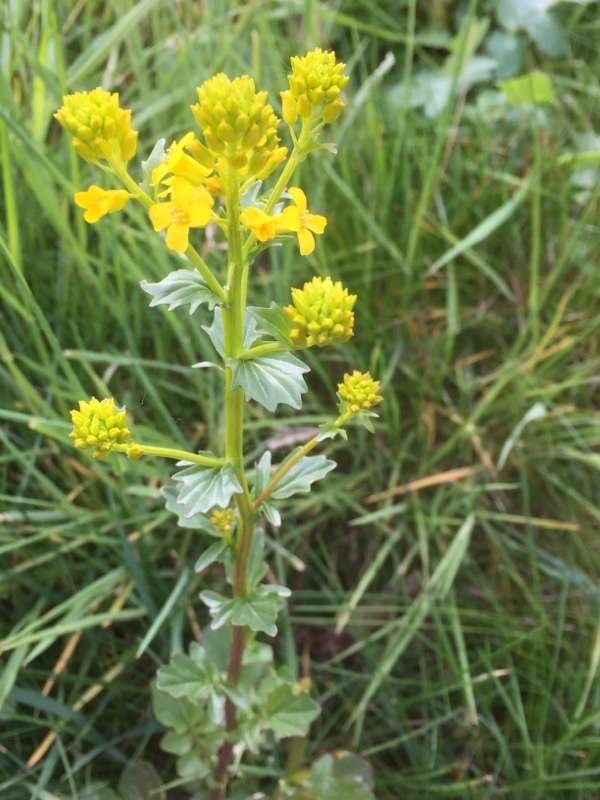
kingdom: Plantae
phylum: Tracheophyta
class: Magnoliopsida
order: Brassicales
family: Brassicaceae
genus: Barbarea
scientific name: Barbarea vulgaris
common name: Cressy-greens
